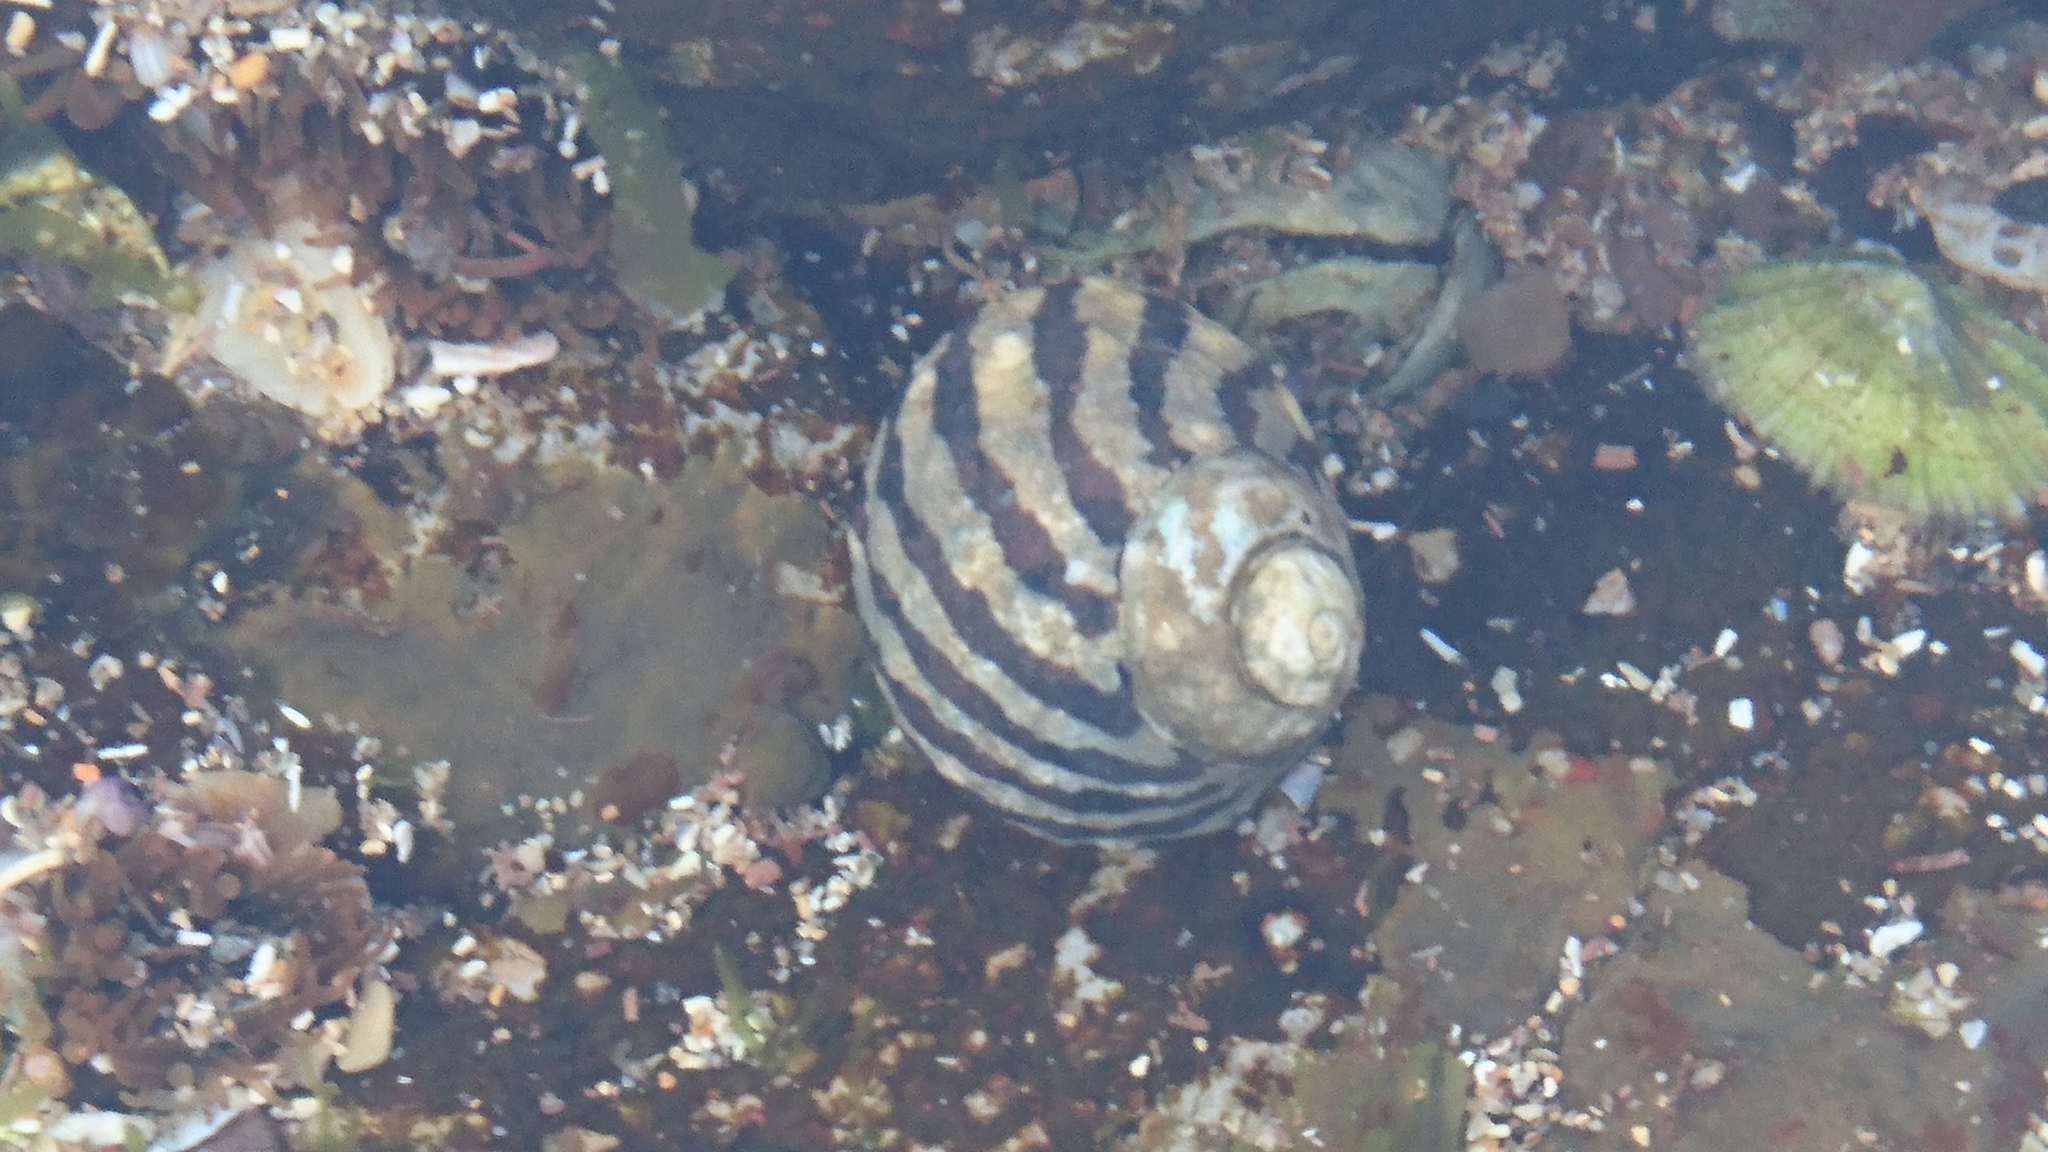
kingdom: Animalia
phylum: Mollusca
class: Gastropoda
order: Trochida
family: Trochidae
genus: Austrocochlea
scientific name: Austrocochlea porcata
